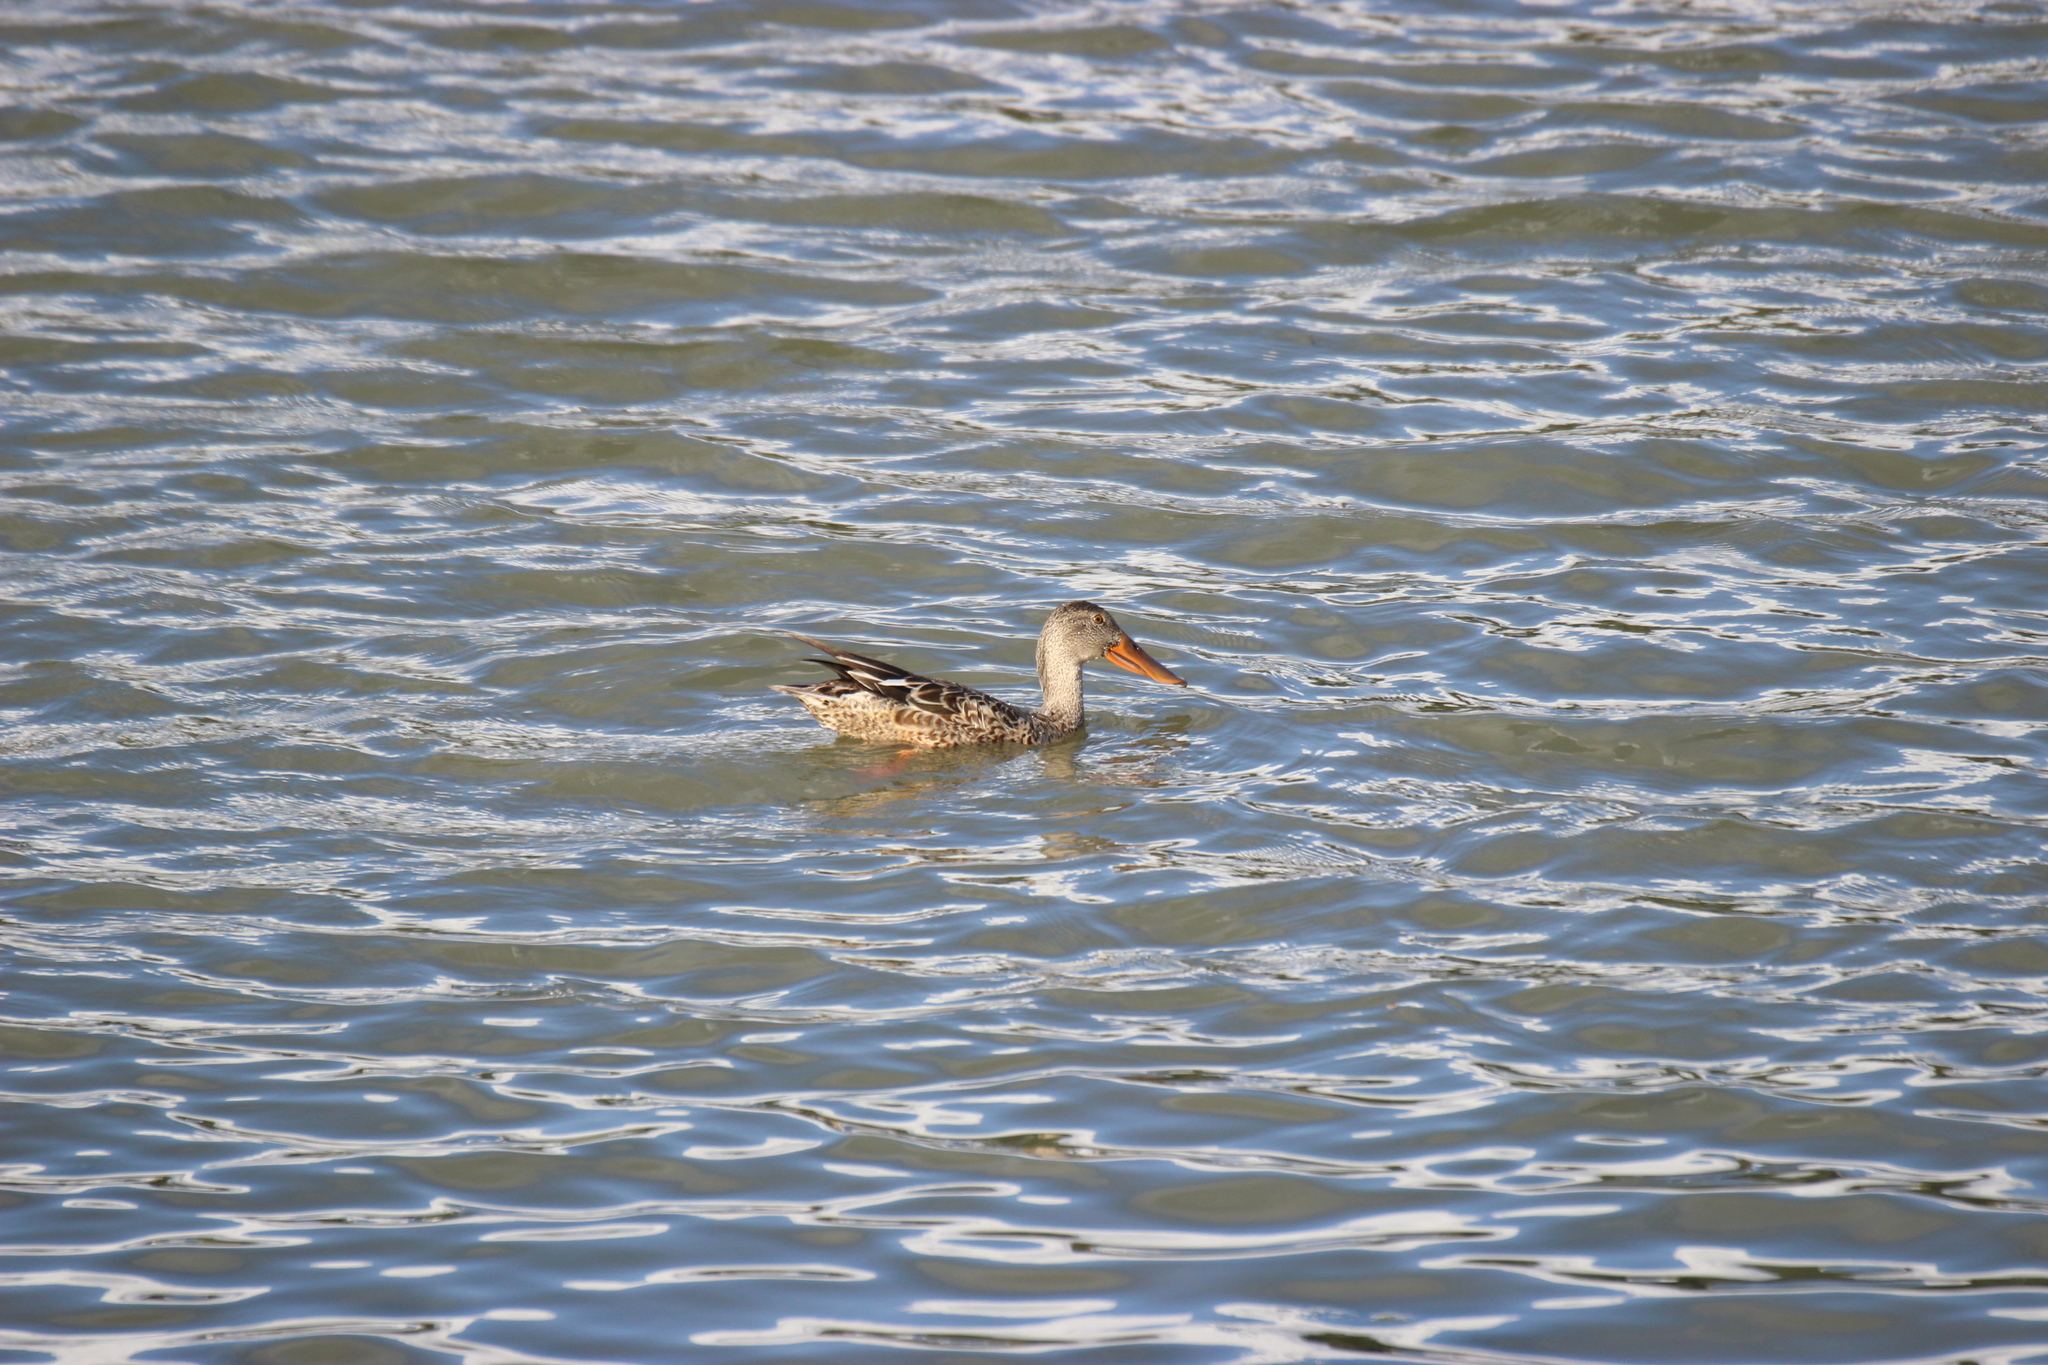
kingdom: Animalia
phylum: Chordata
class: Aves
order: Anseriformes
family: Anatidae
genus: Spatula
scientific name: Spatula clypeata
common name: Northern shoveler
